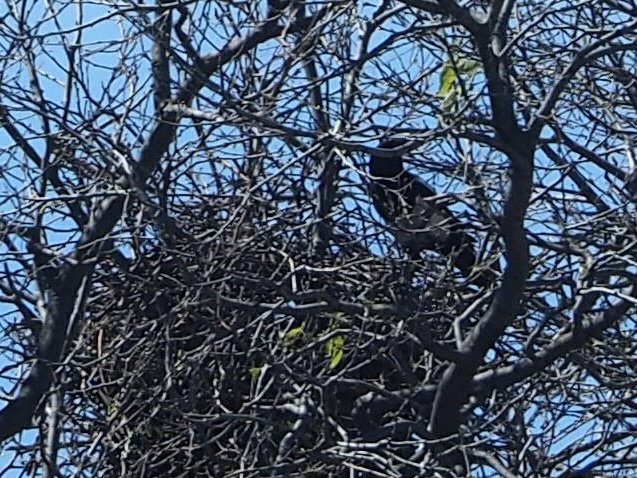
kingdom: Animalia
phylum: Chordata
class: Aves
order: Passeriformes
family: Corvidae
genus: Pica
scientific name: Pica pica
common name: Eurasian magpie
